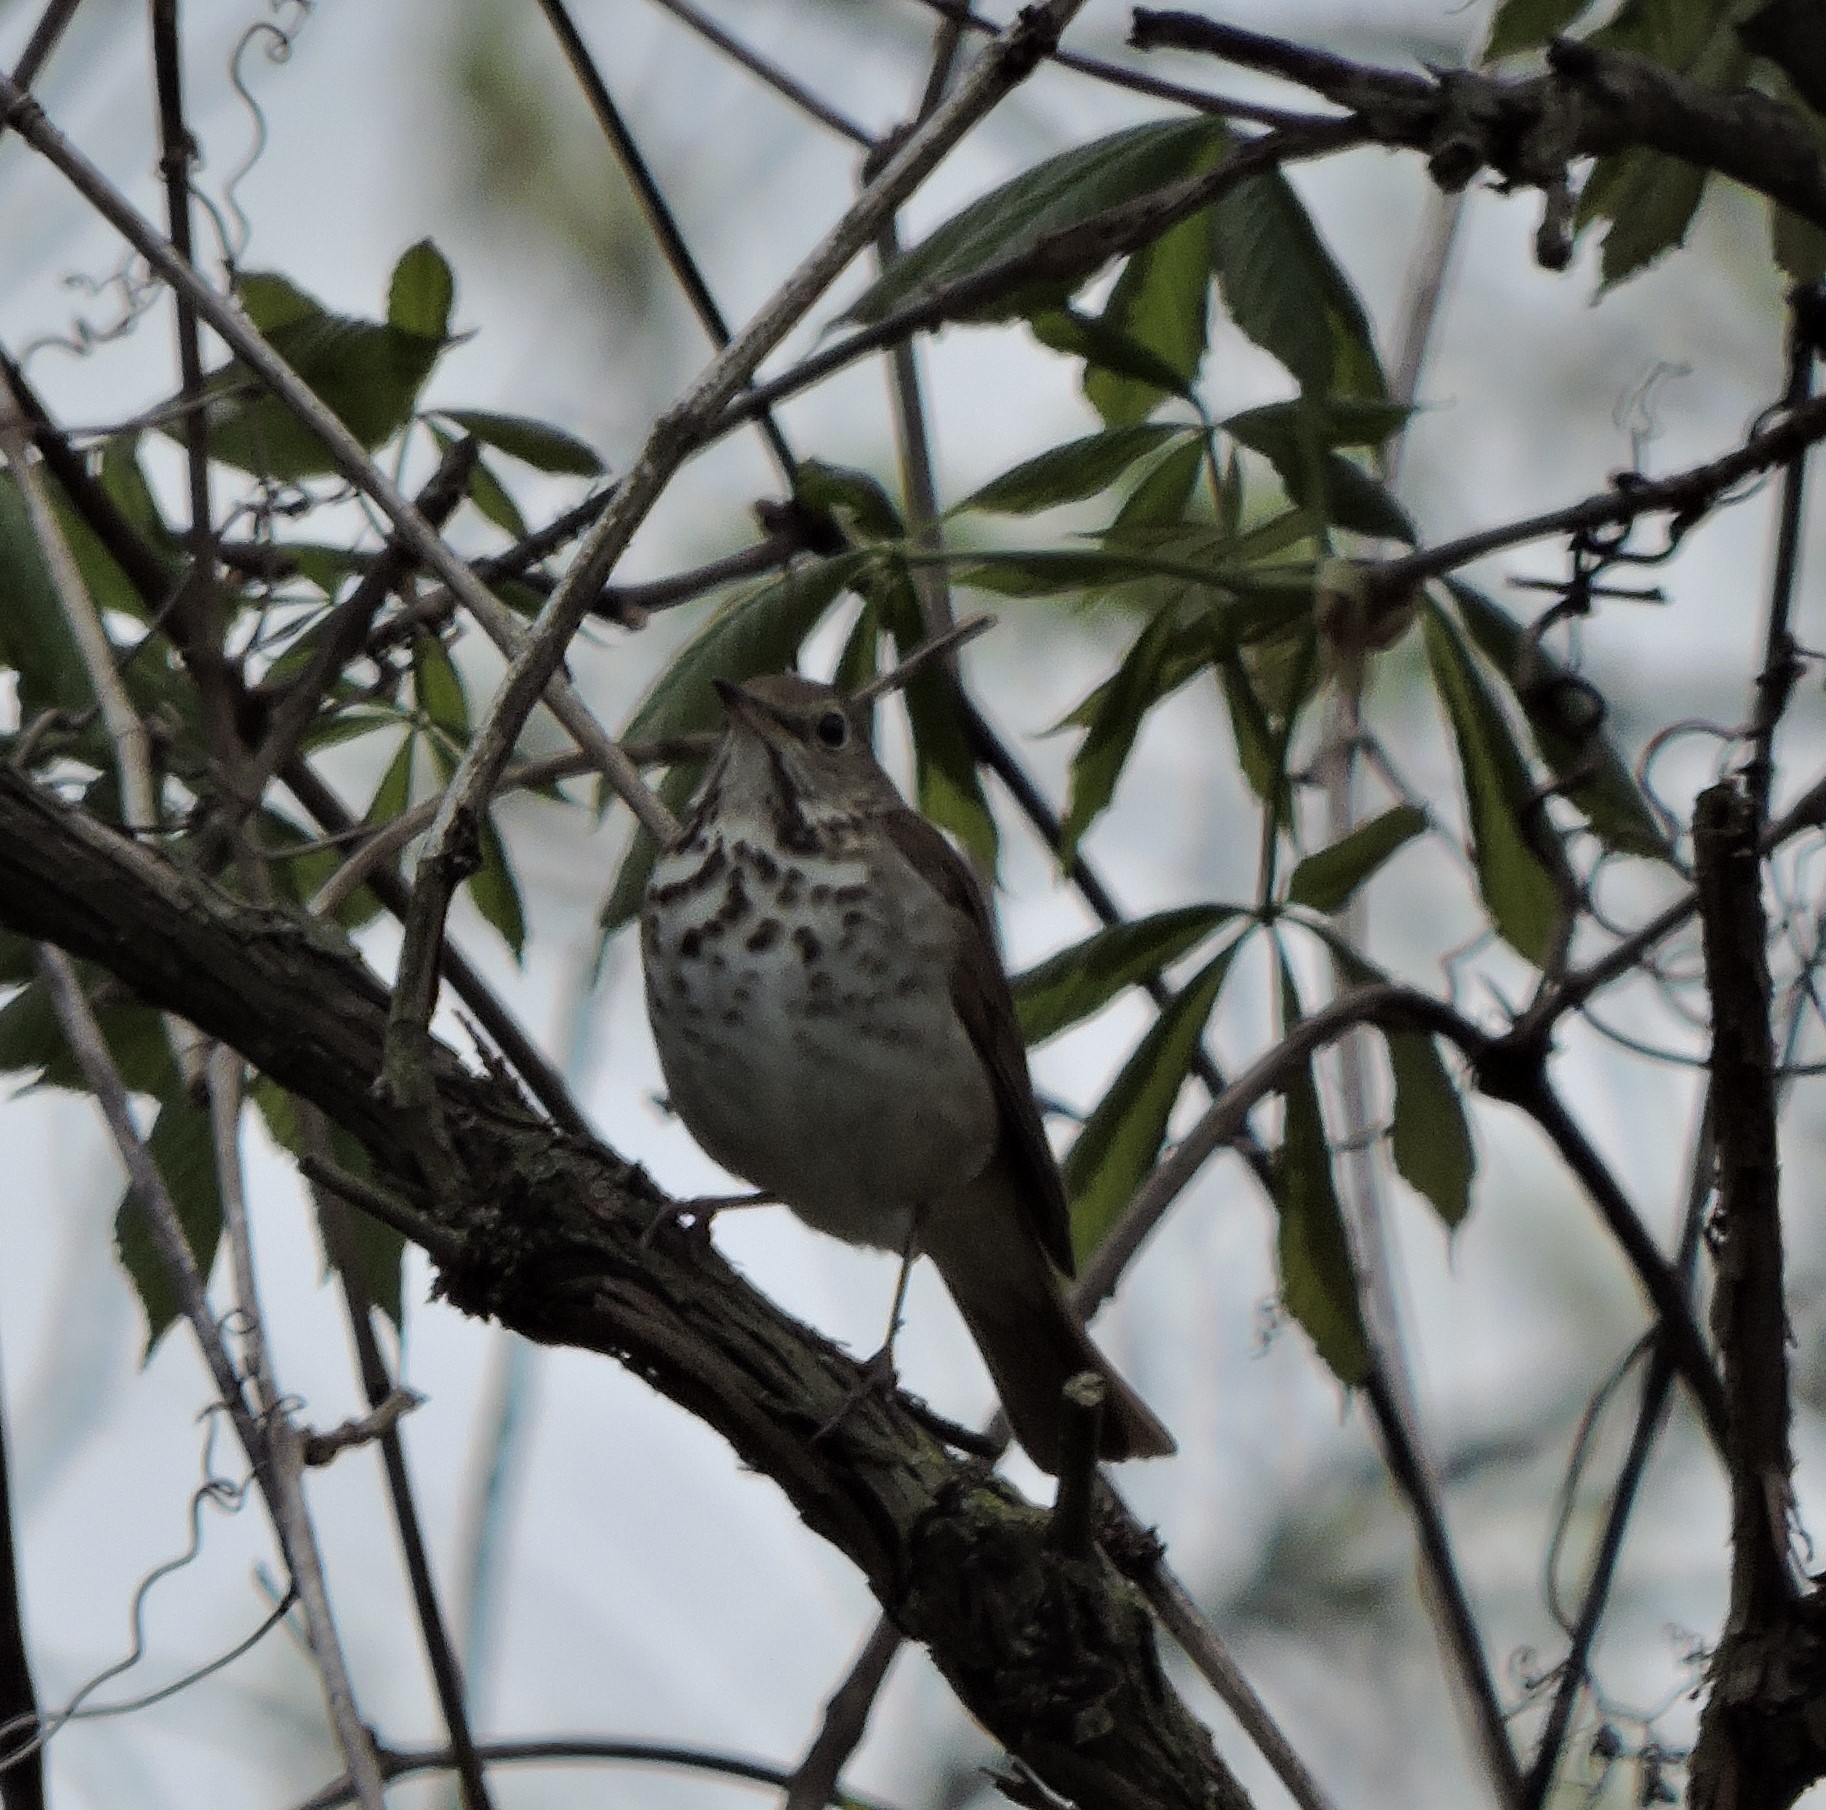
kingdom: Animalia
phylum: Chordata
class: Aves
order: Passeriformes
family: Turdidae
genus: Catharus
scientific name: Catharus guttatus
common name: Hermit thrush
